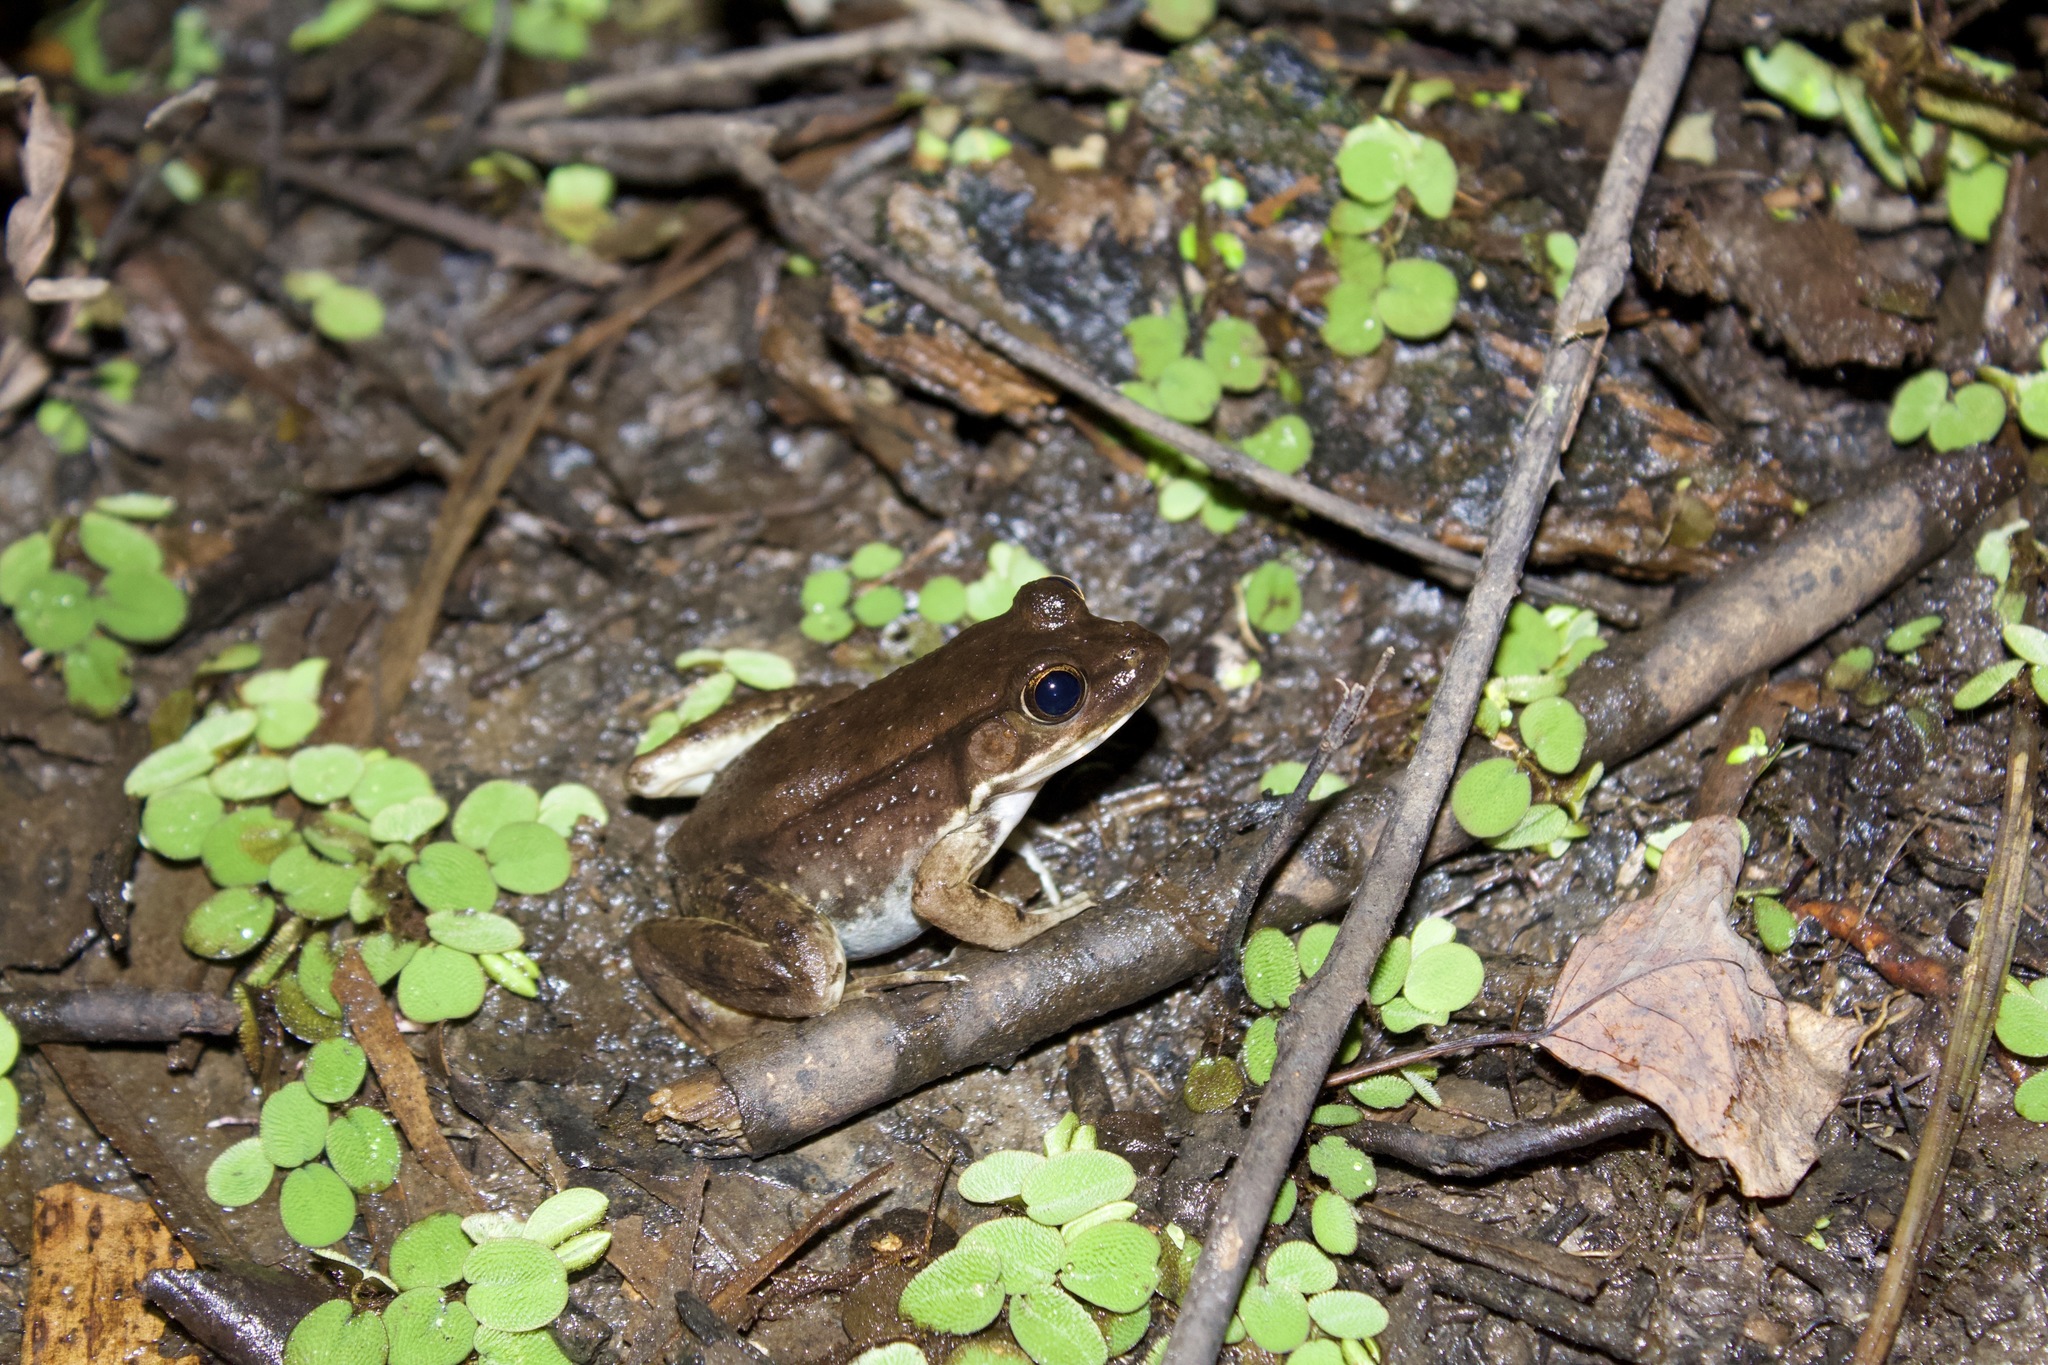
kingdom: Animalia
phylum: Chordata
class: Amphibia
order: Anura
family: Ranidae
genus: Lithobates
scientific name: Lithobates clamitans
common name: Green frog
